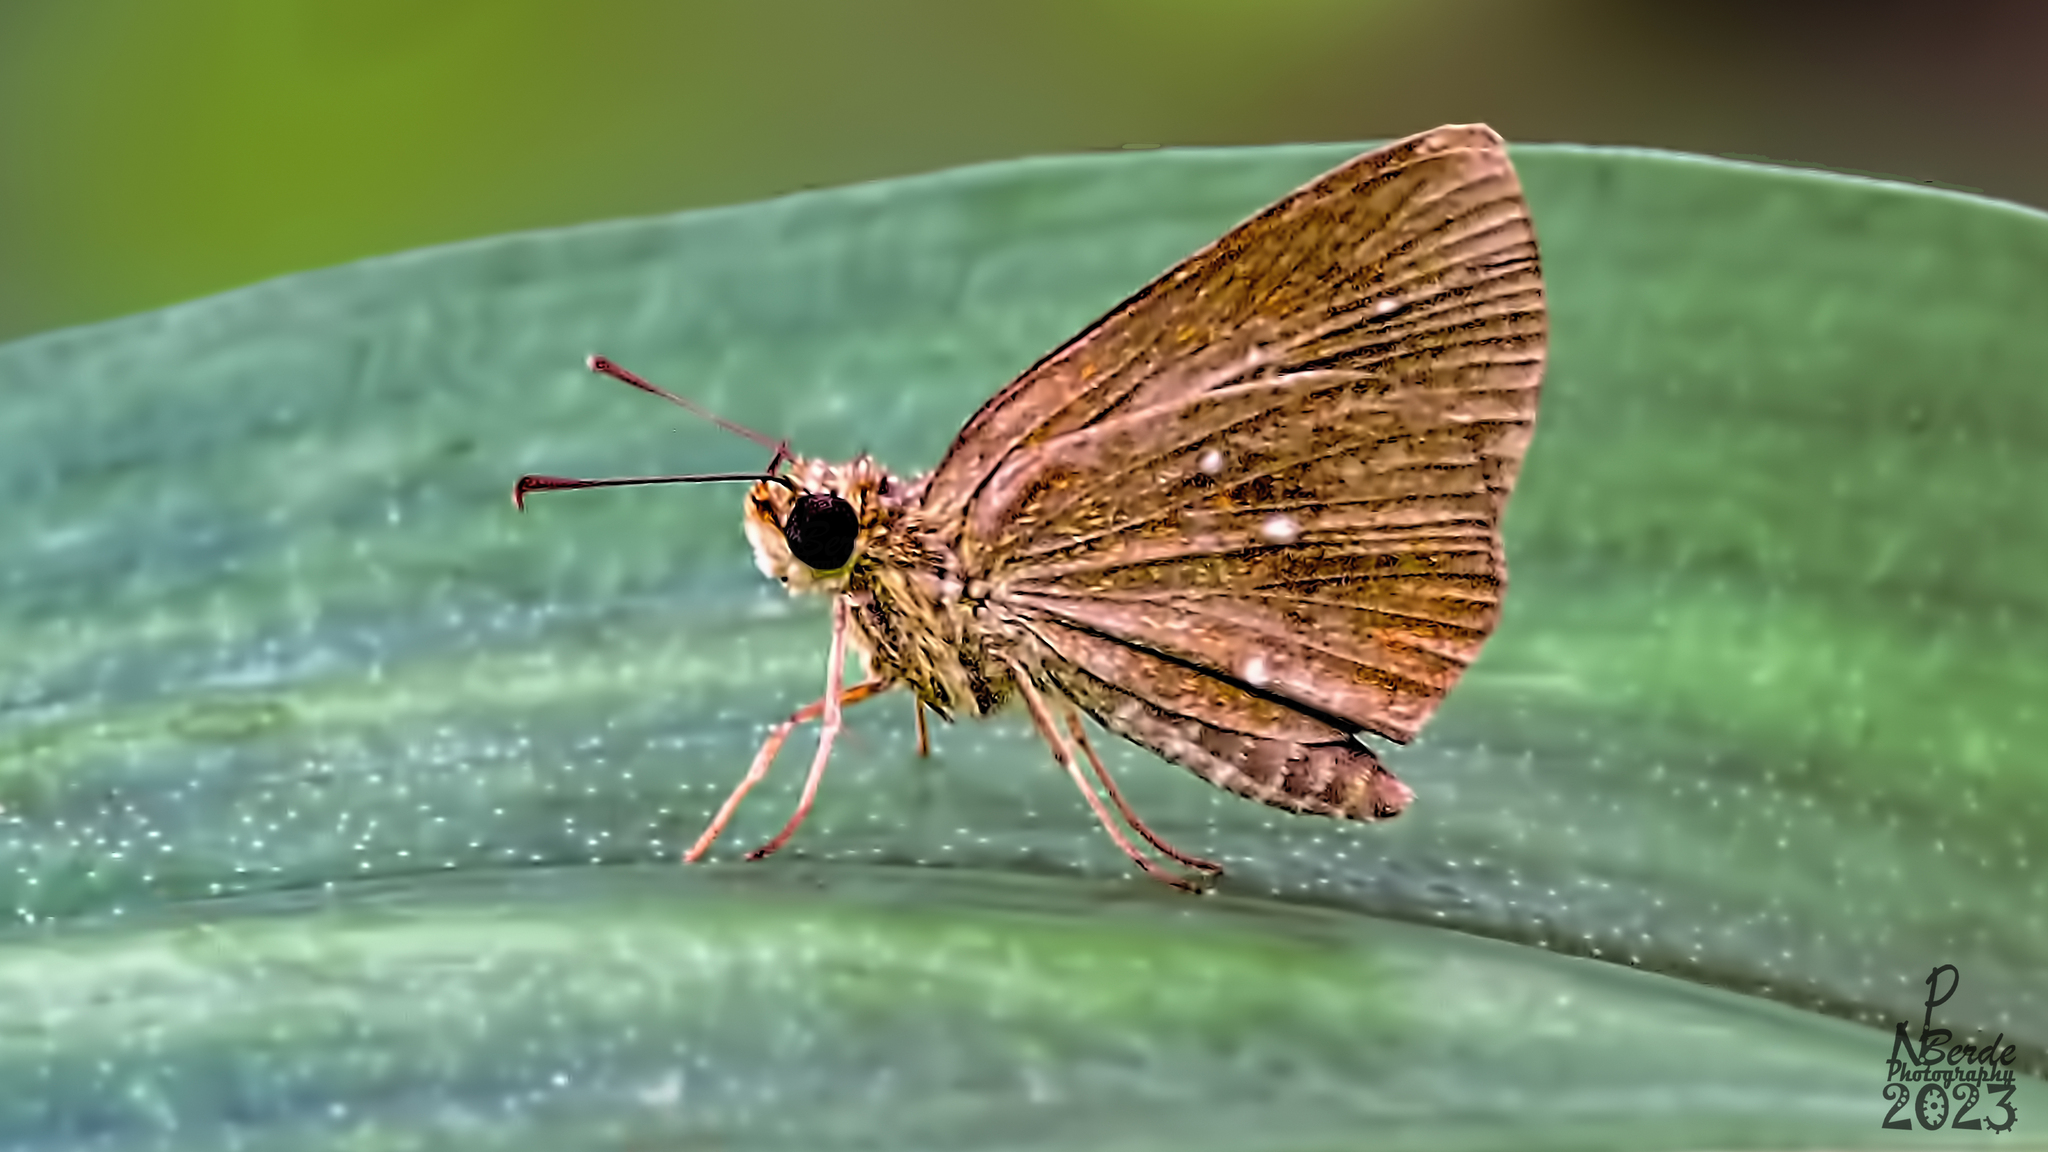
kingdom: Animalia
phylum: Arthropoda
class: Insecta
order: Lepidoptera
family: Hesperiidae
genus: Iambrix
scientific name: Iambrix salsala
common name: Chestnut bob
